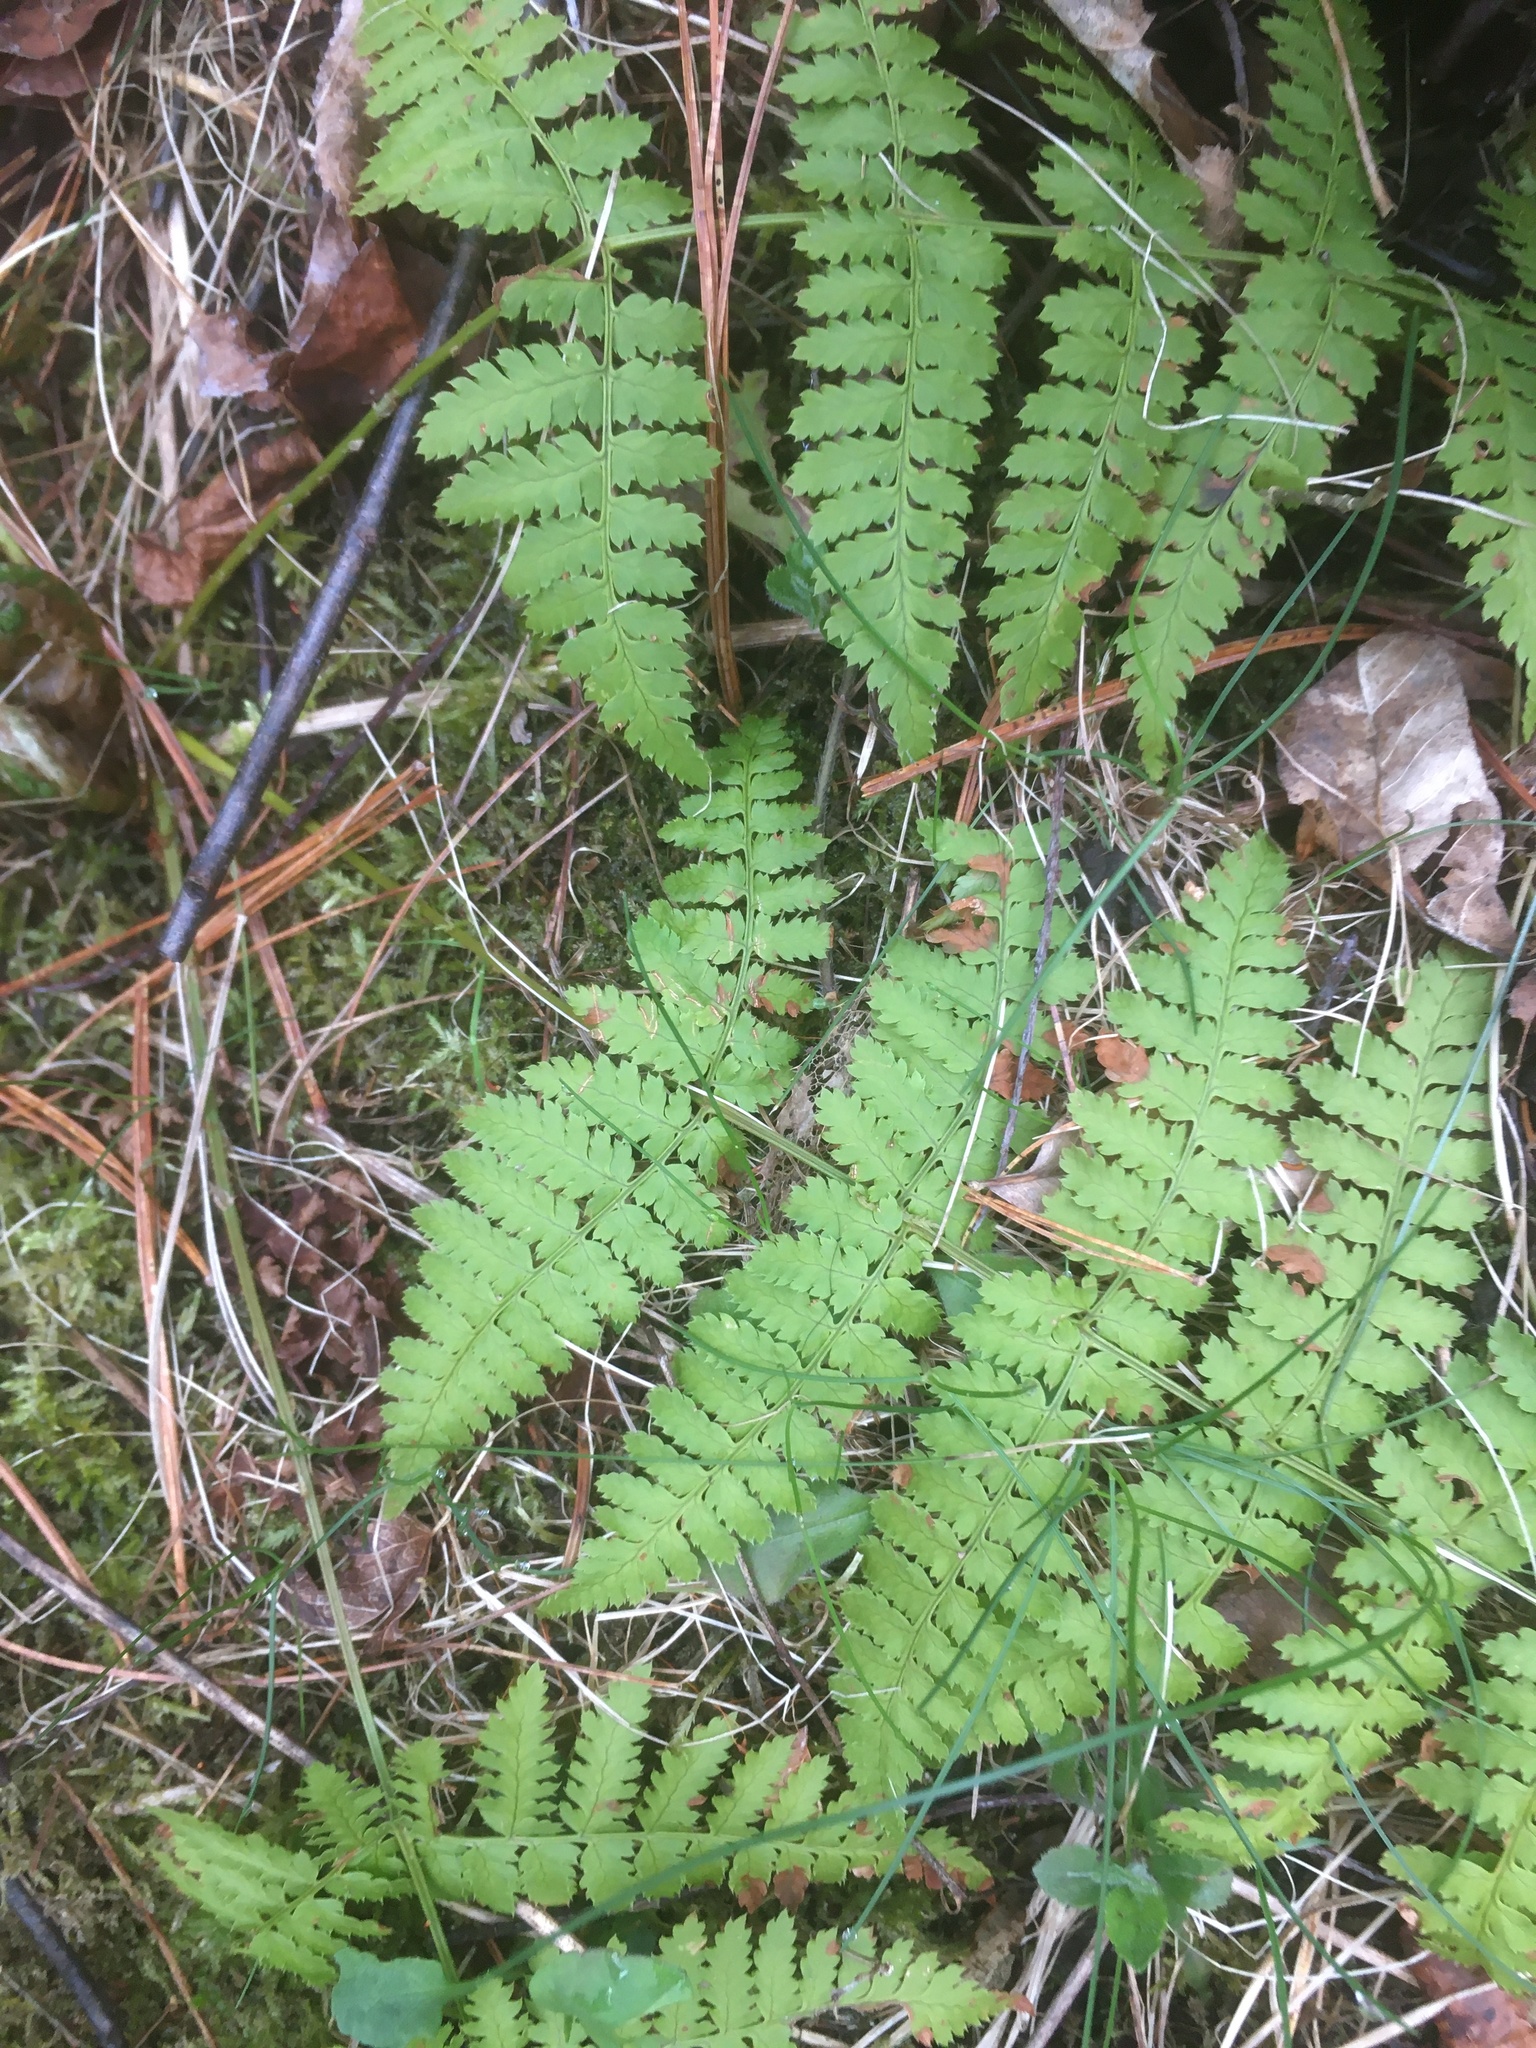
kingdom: Plantae
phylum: Tracheophyta
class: Polypodiopsida
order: Polypodiales
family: Dryopteridaceae
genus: Dryopteris
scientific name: Dryopteris intermedia
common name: Evergreen wood fern
